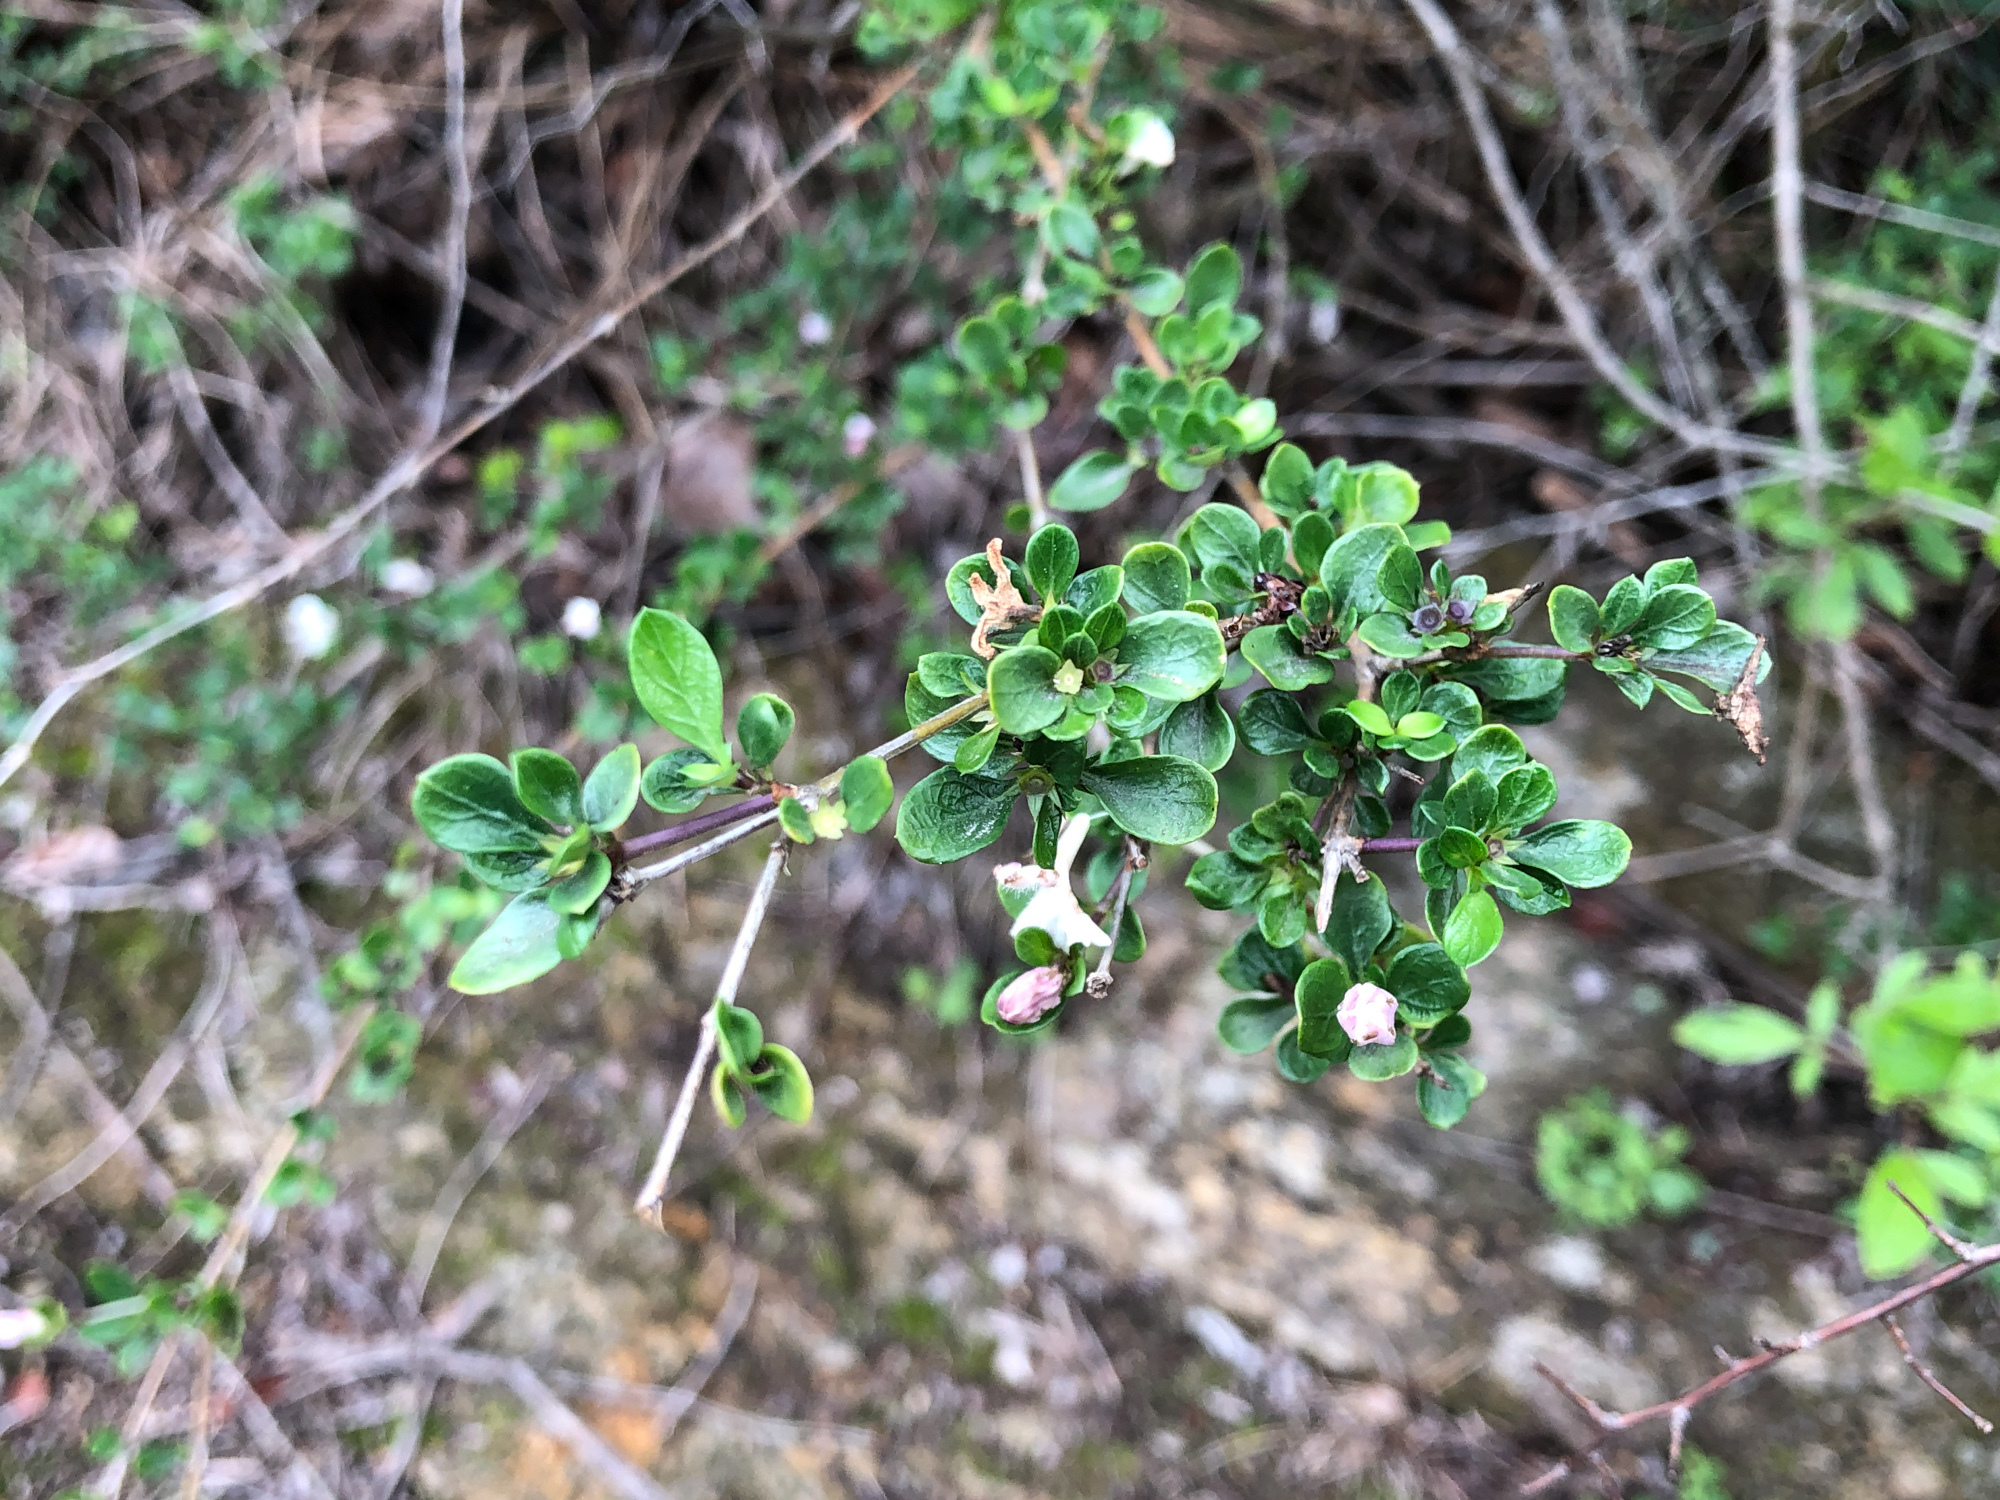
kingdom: Plantae
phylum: Tracheophyta
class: Magnoliopsida
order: Gentianales
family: Rubiaceae
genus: Buchozia
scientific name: Buchozia japonica
